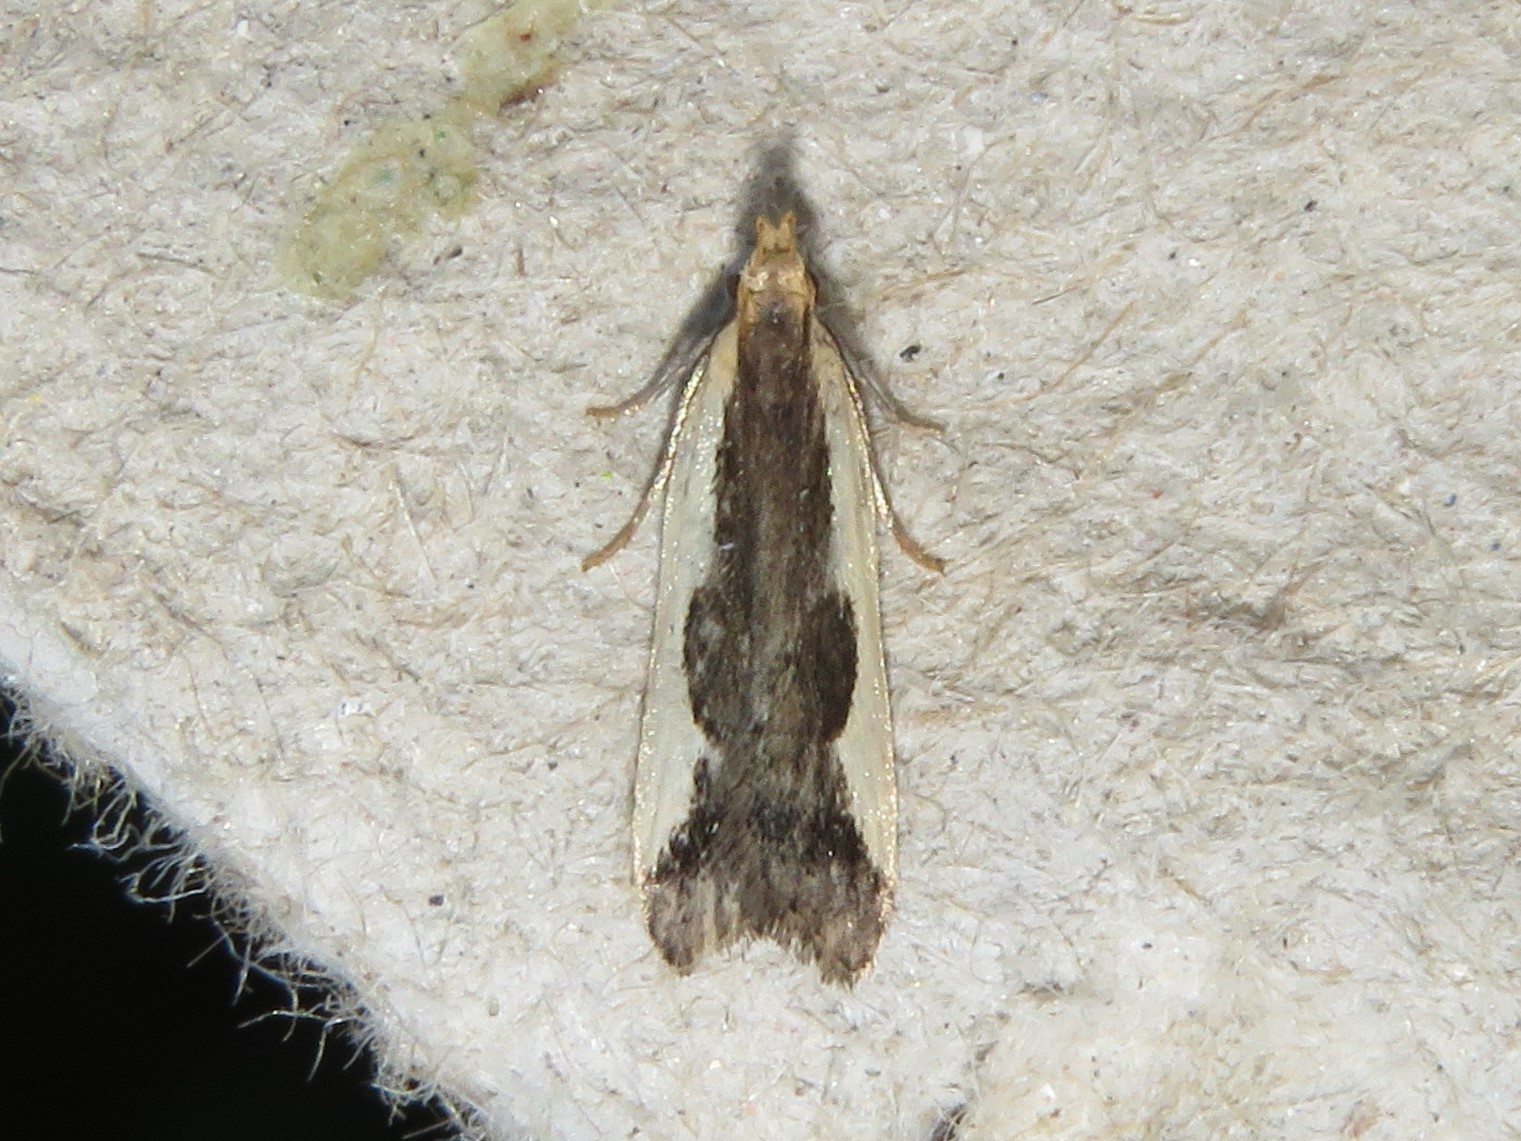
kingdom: Animalia
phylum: Arthropoda
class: Insecta
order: Lepidoptera
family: Gelechiidae
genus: Dichomeris
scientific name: Dichomeris inserrata
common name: Indented dichomeris moth
